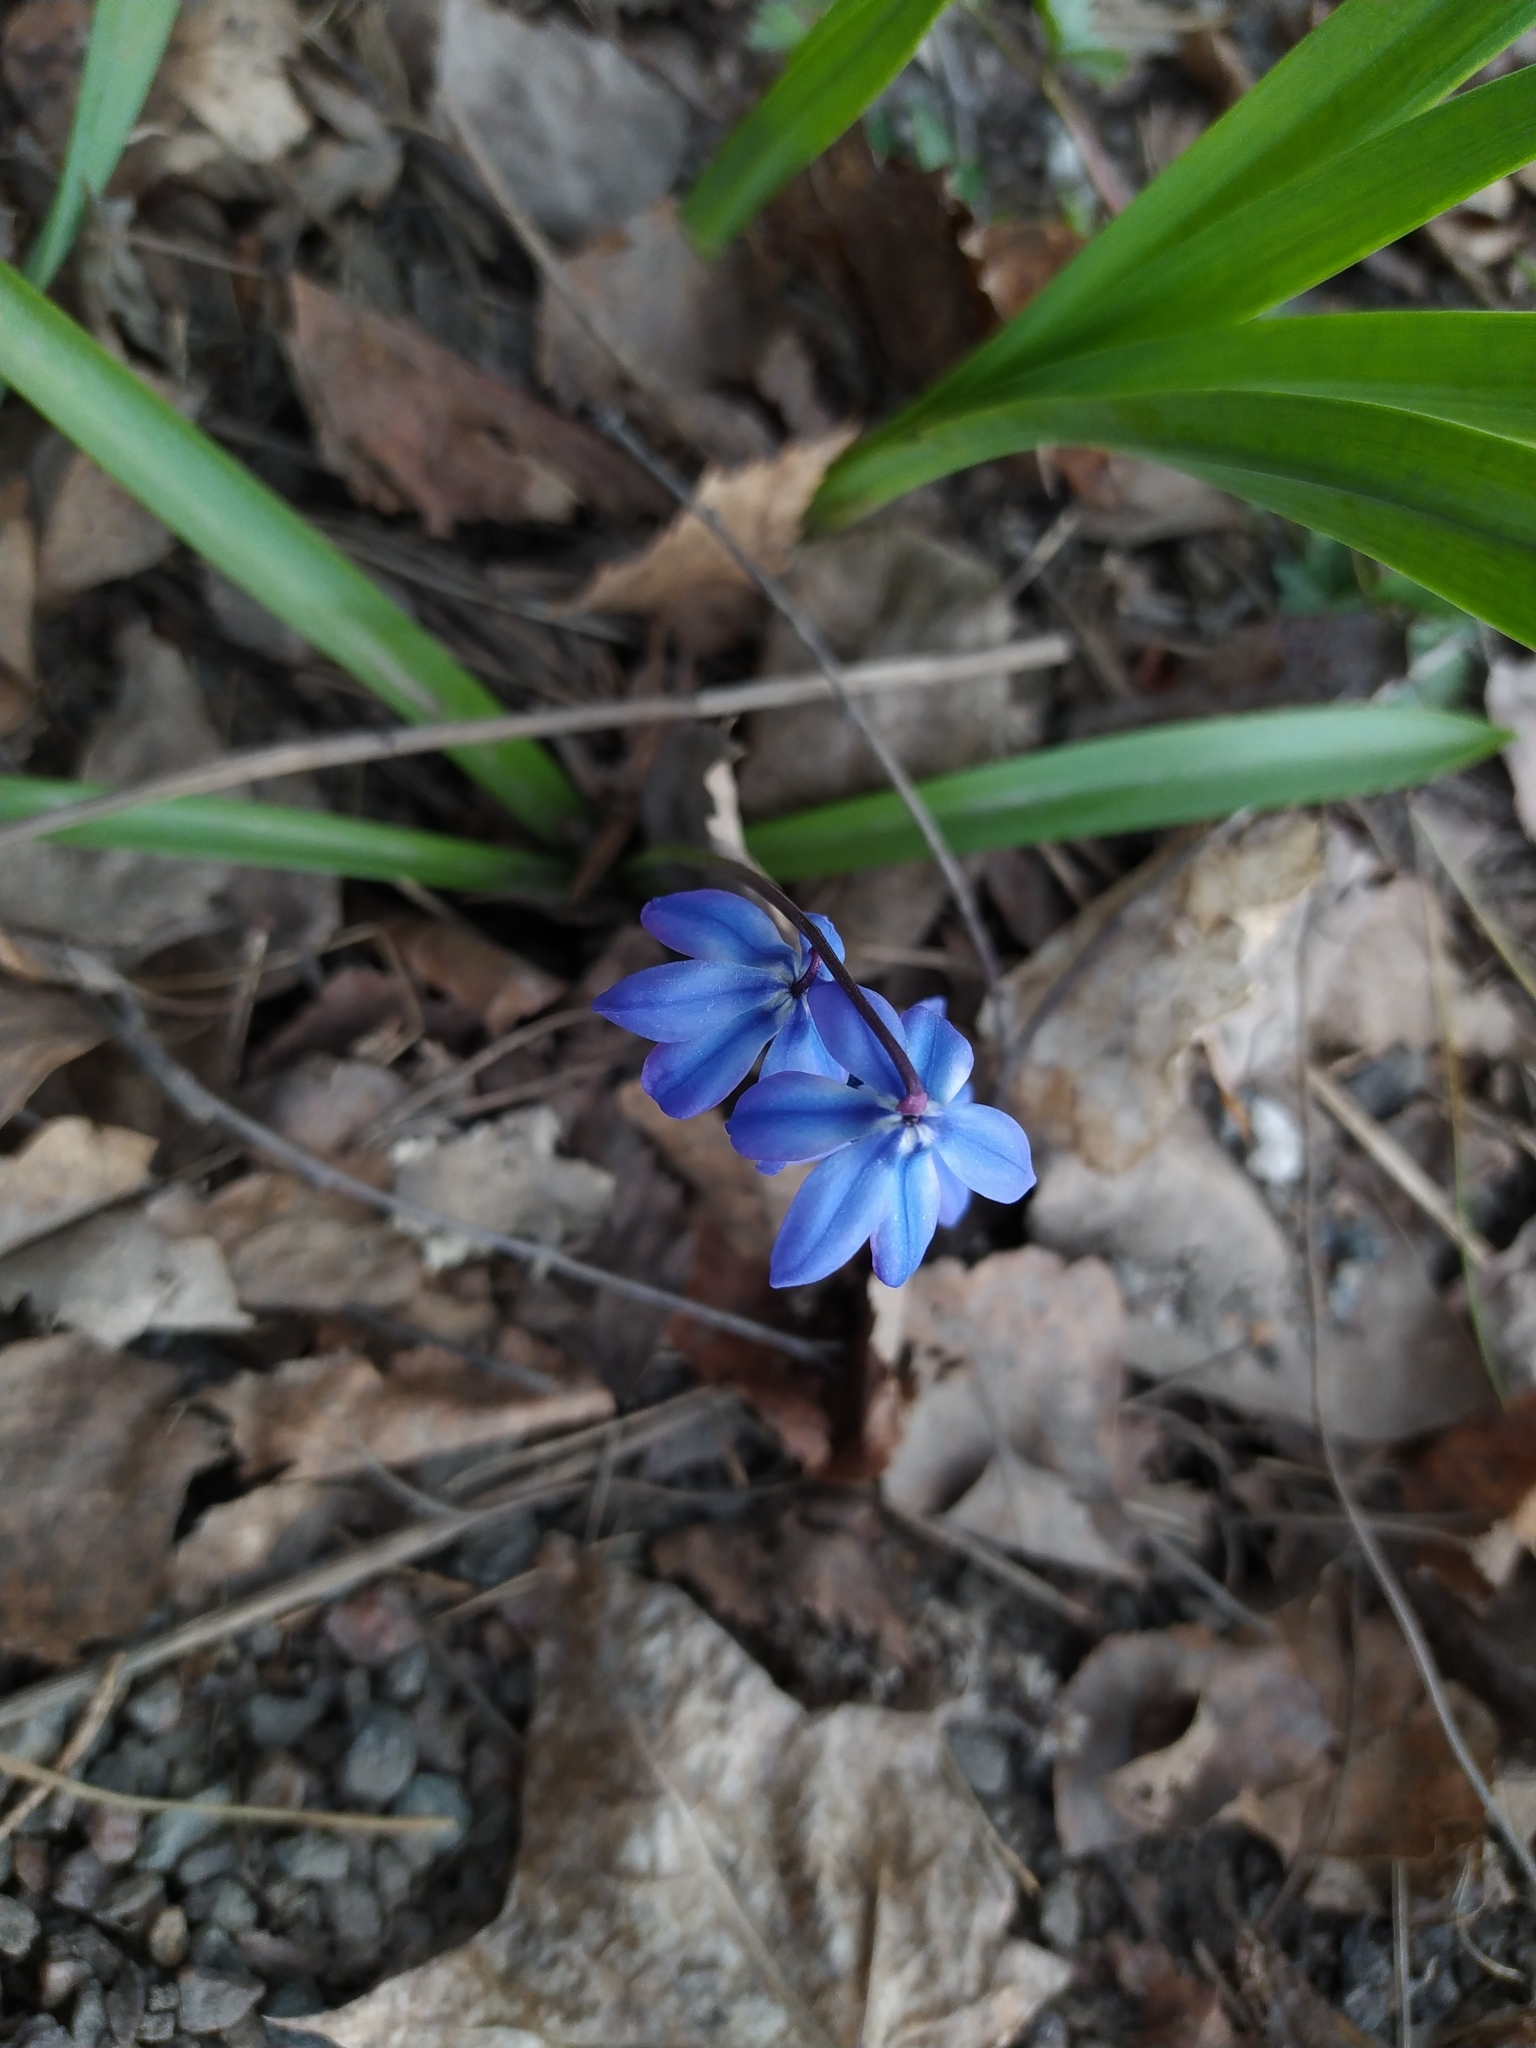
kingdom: Plantae
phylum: Tracheophyta
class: Liliopsida
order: Asparagales
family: Asparagaceae
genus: Scilla
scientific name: Scilla siberica
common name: Siberian squill
